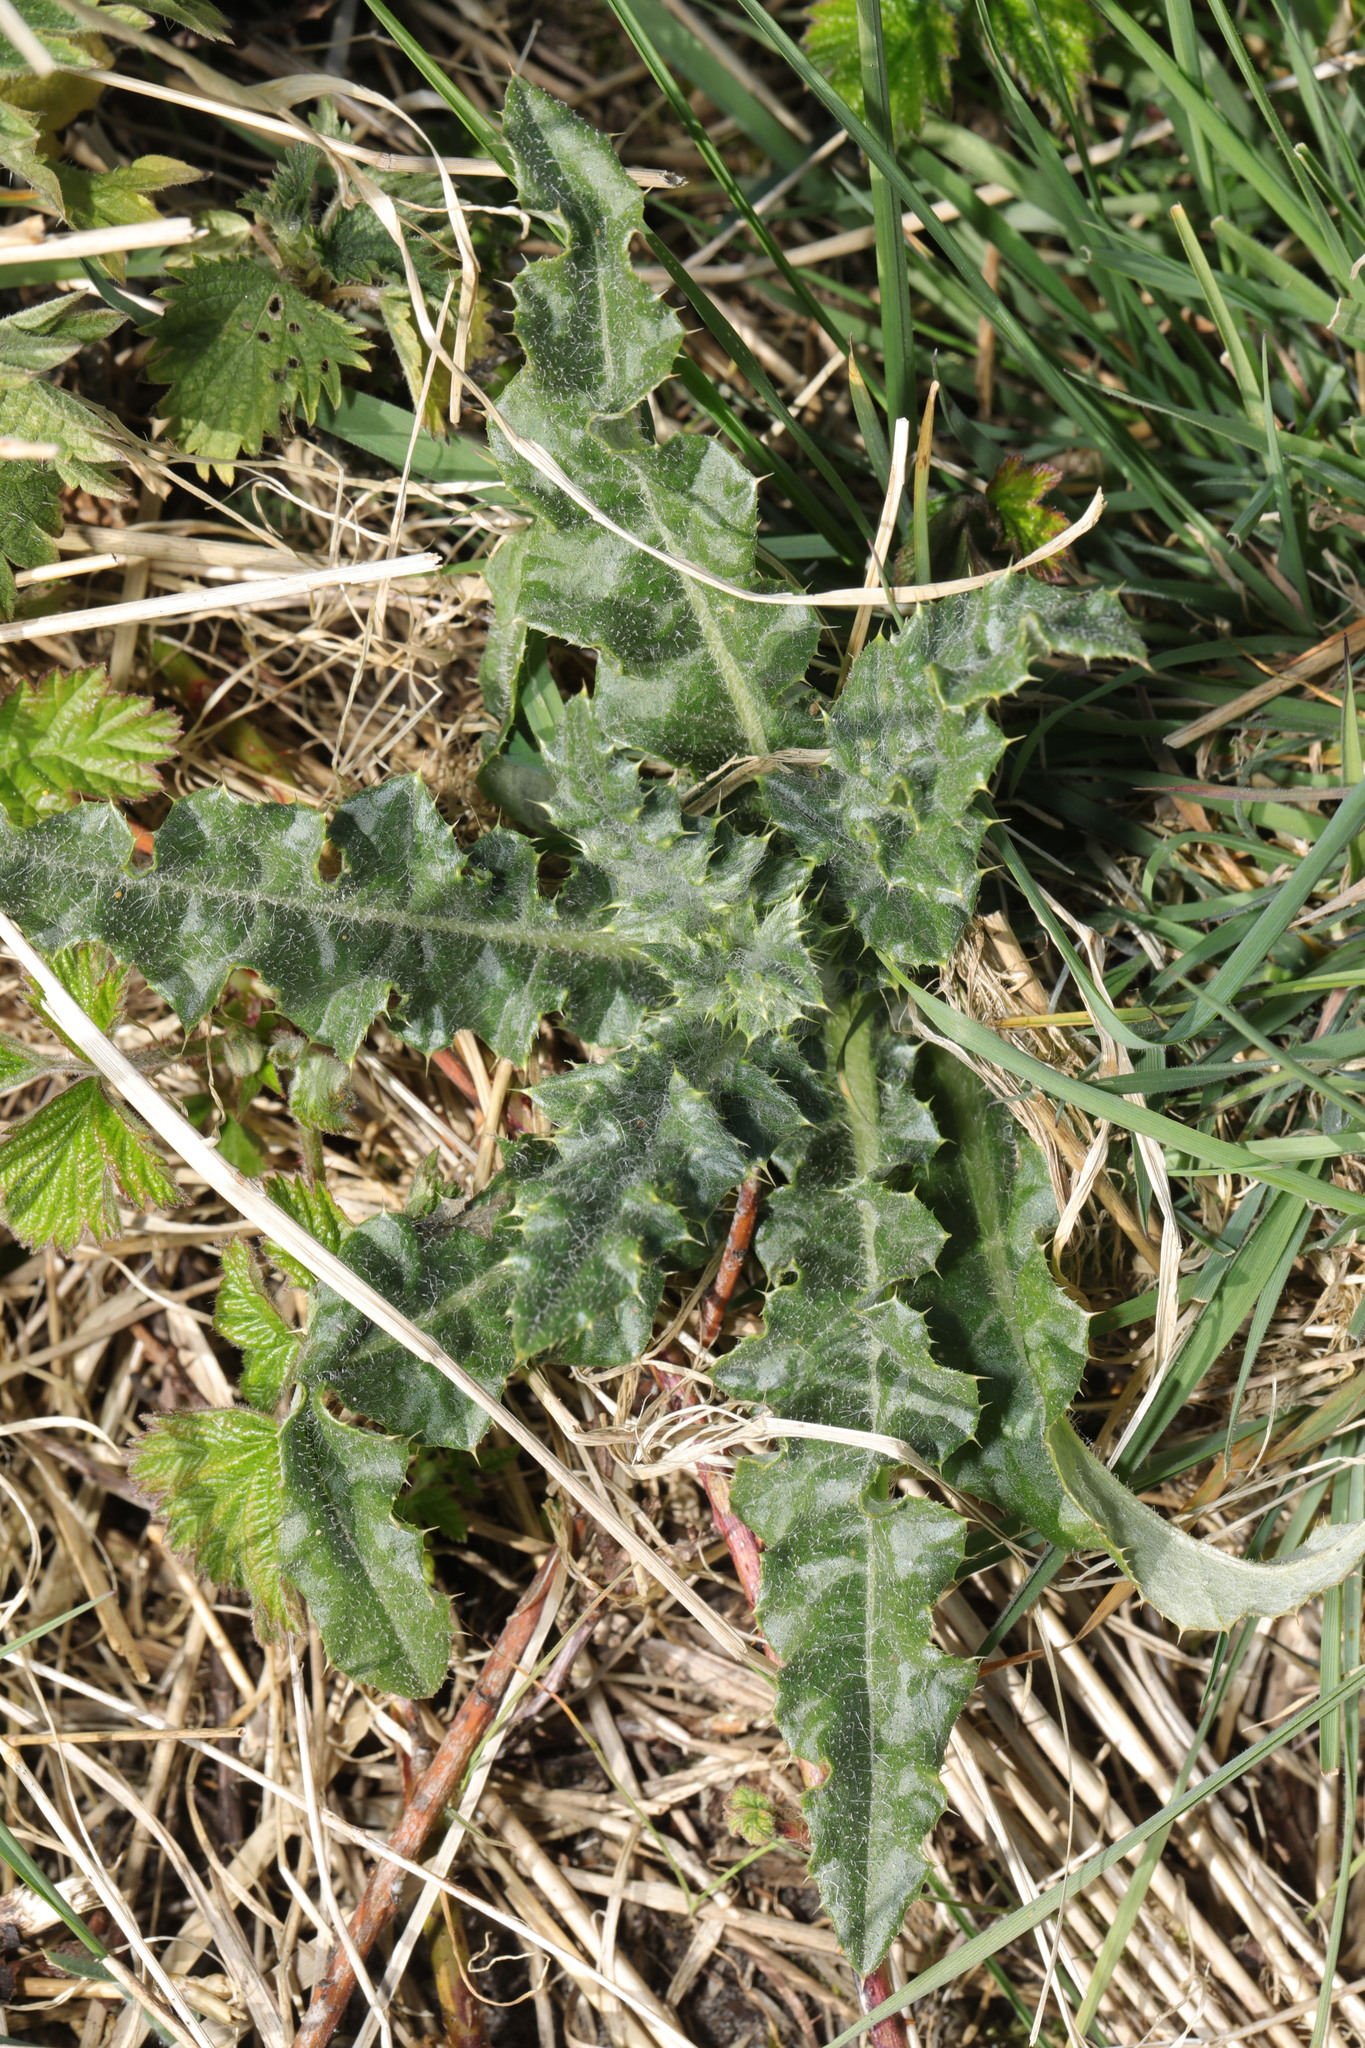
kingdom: Plantae
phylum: Tracheophyta
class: Magnoliopsida
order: Asterales
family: Asteraceae
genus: Cirsium
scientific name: Cirsium arvense
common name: Creeping thistle
